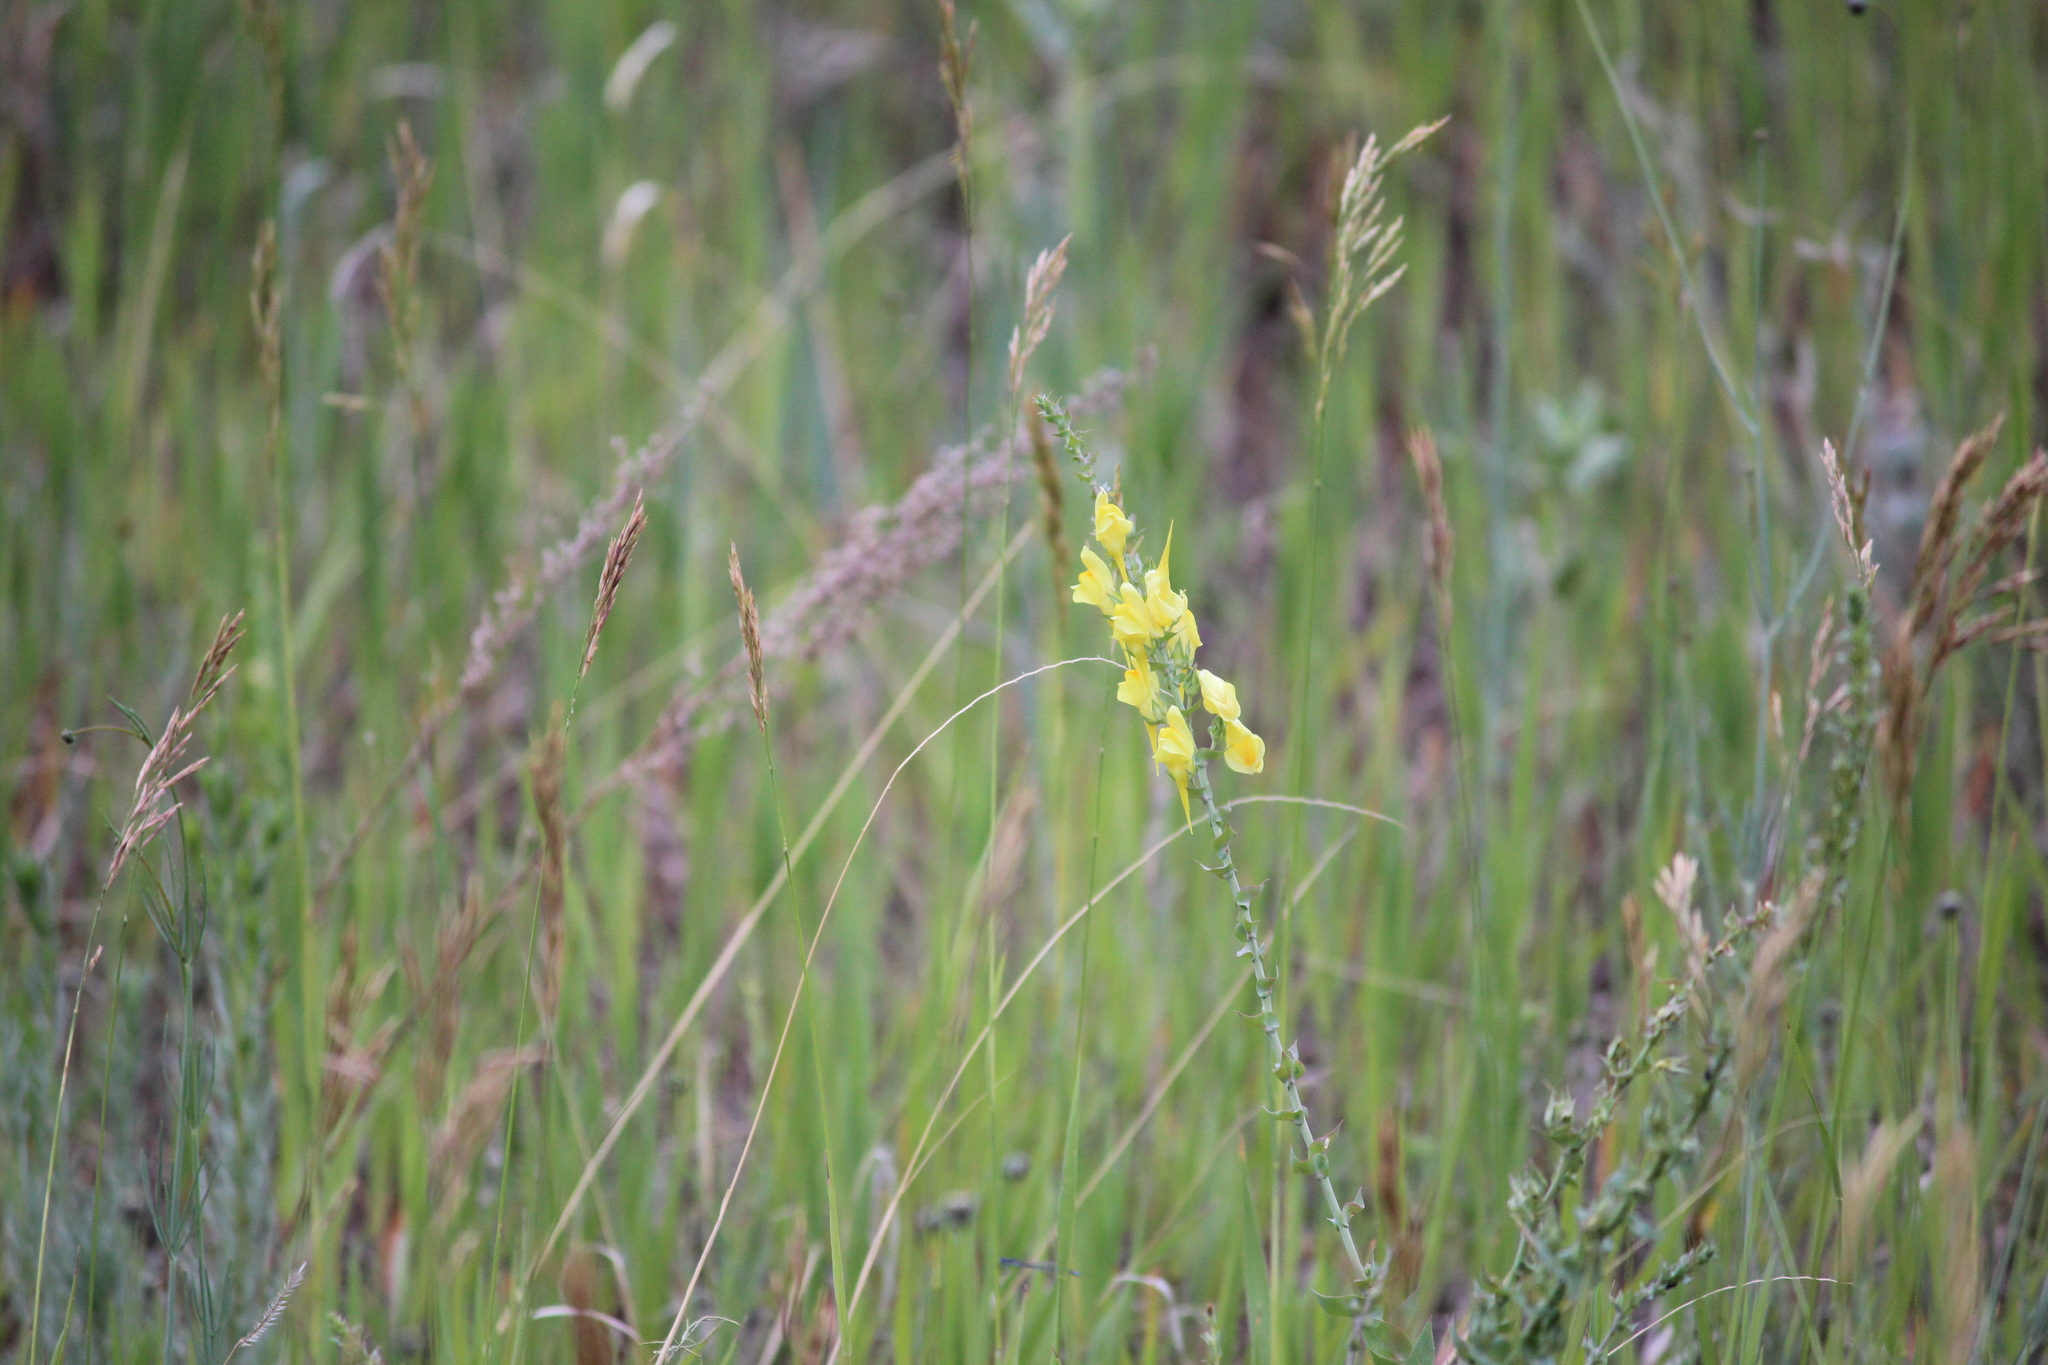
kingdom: Plantae
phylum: Tracheophyta
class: Magnoliopsida
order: Lamiales
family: Plantaginaceae
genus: Linaria
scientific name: Linaria dalmatica
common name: Dalmatian toadflax
